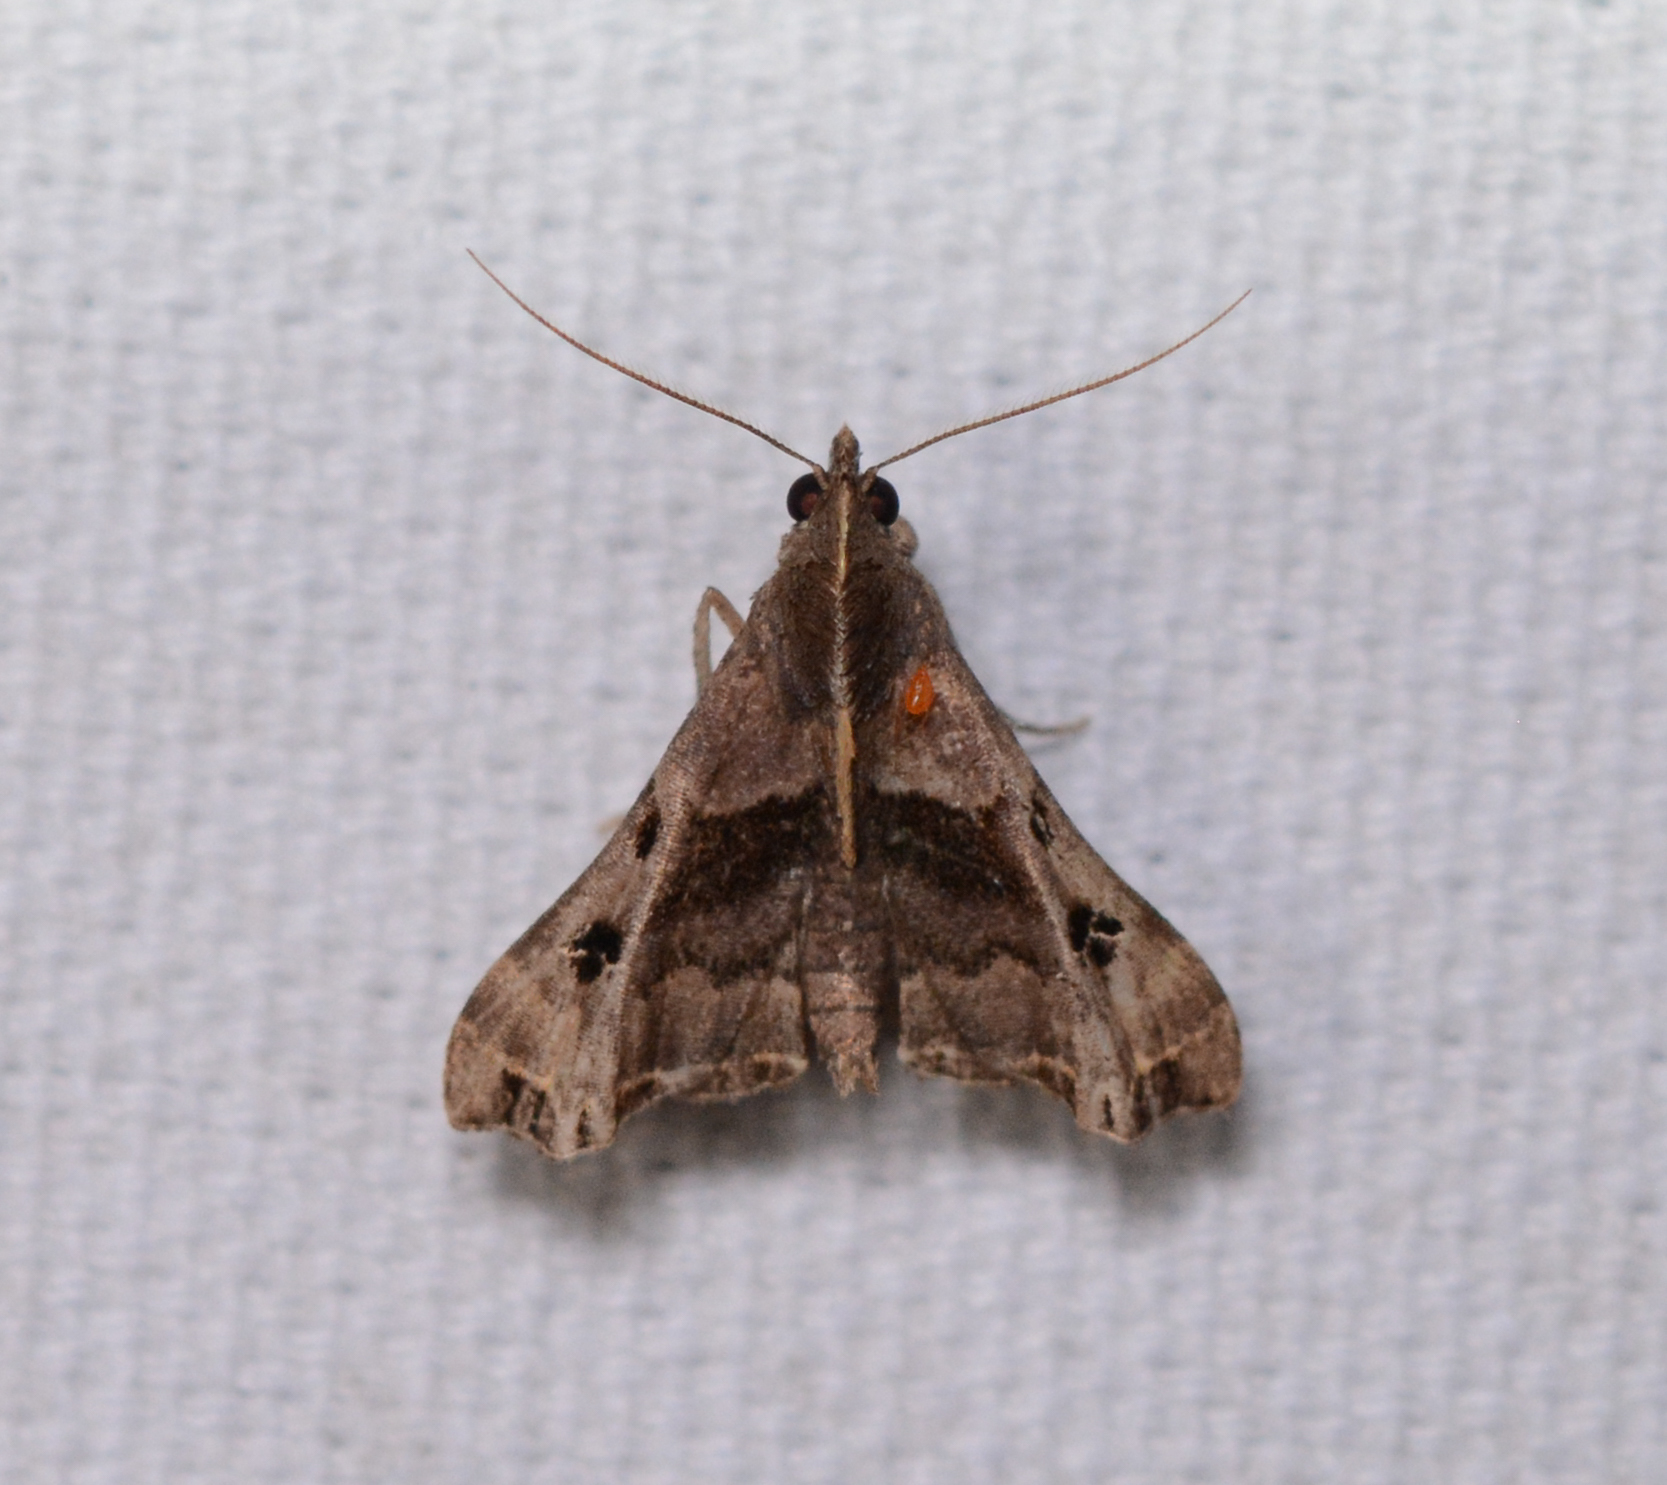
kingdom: Animalia
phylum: Arthropoda
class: Insecta
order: Lepidoptera
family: Erebidae
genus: Palthis
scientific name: Palthis asopialis
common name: Faint-spotted palthis moth
